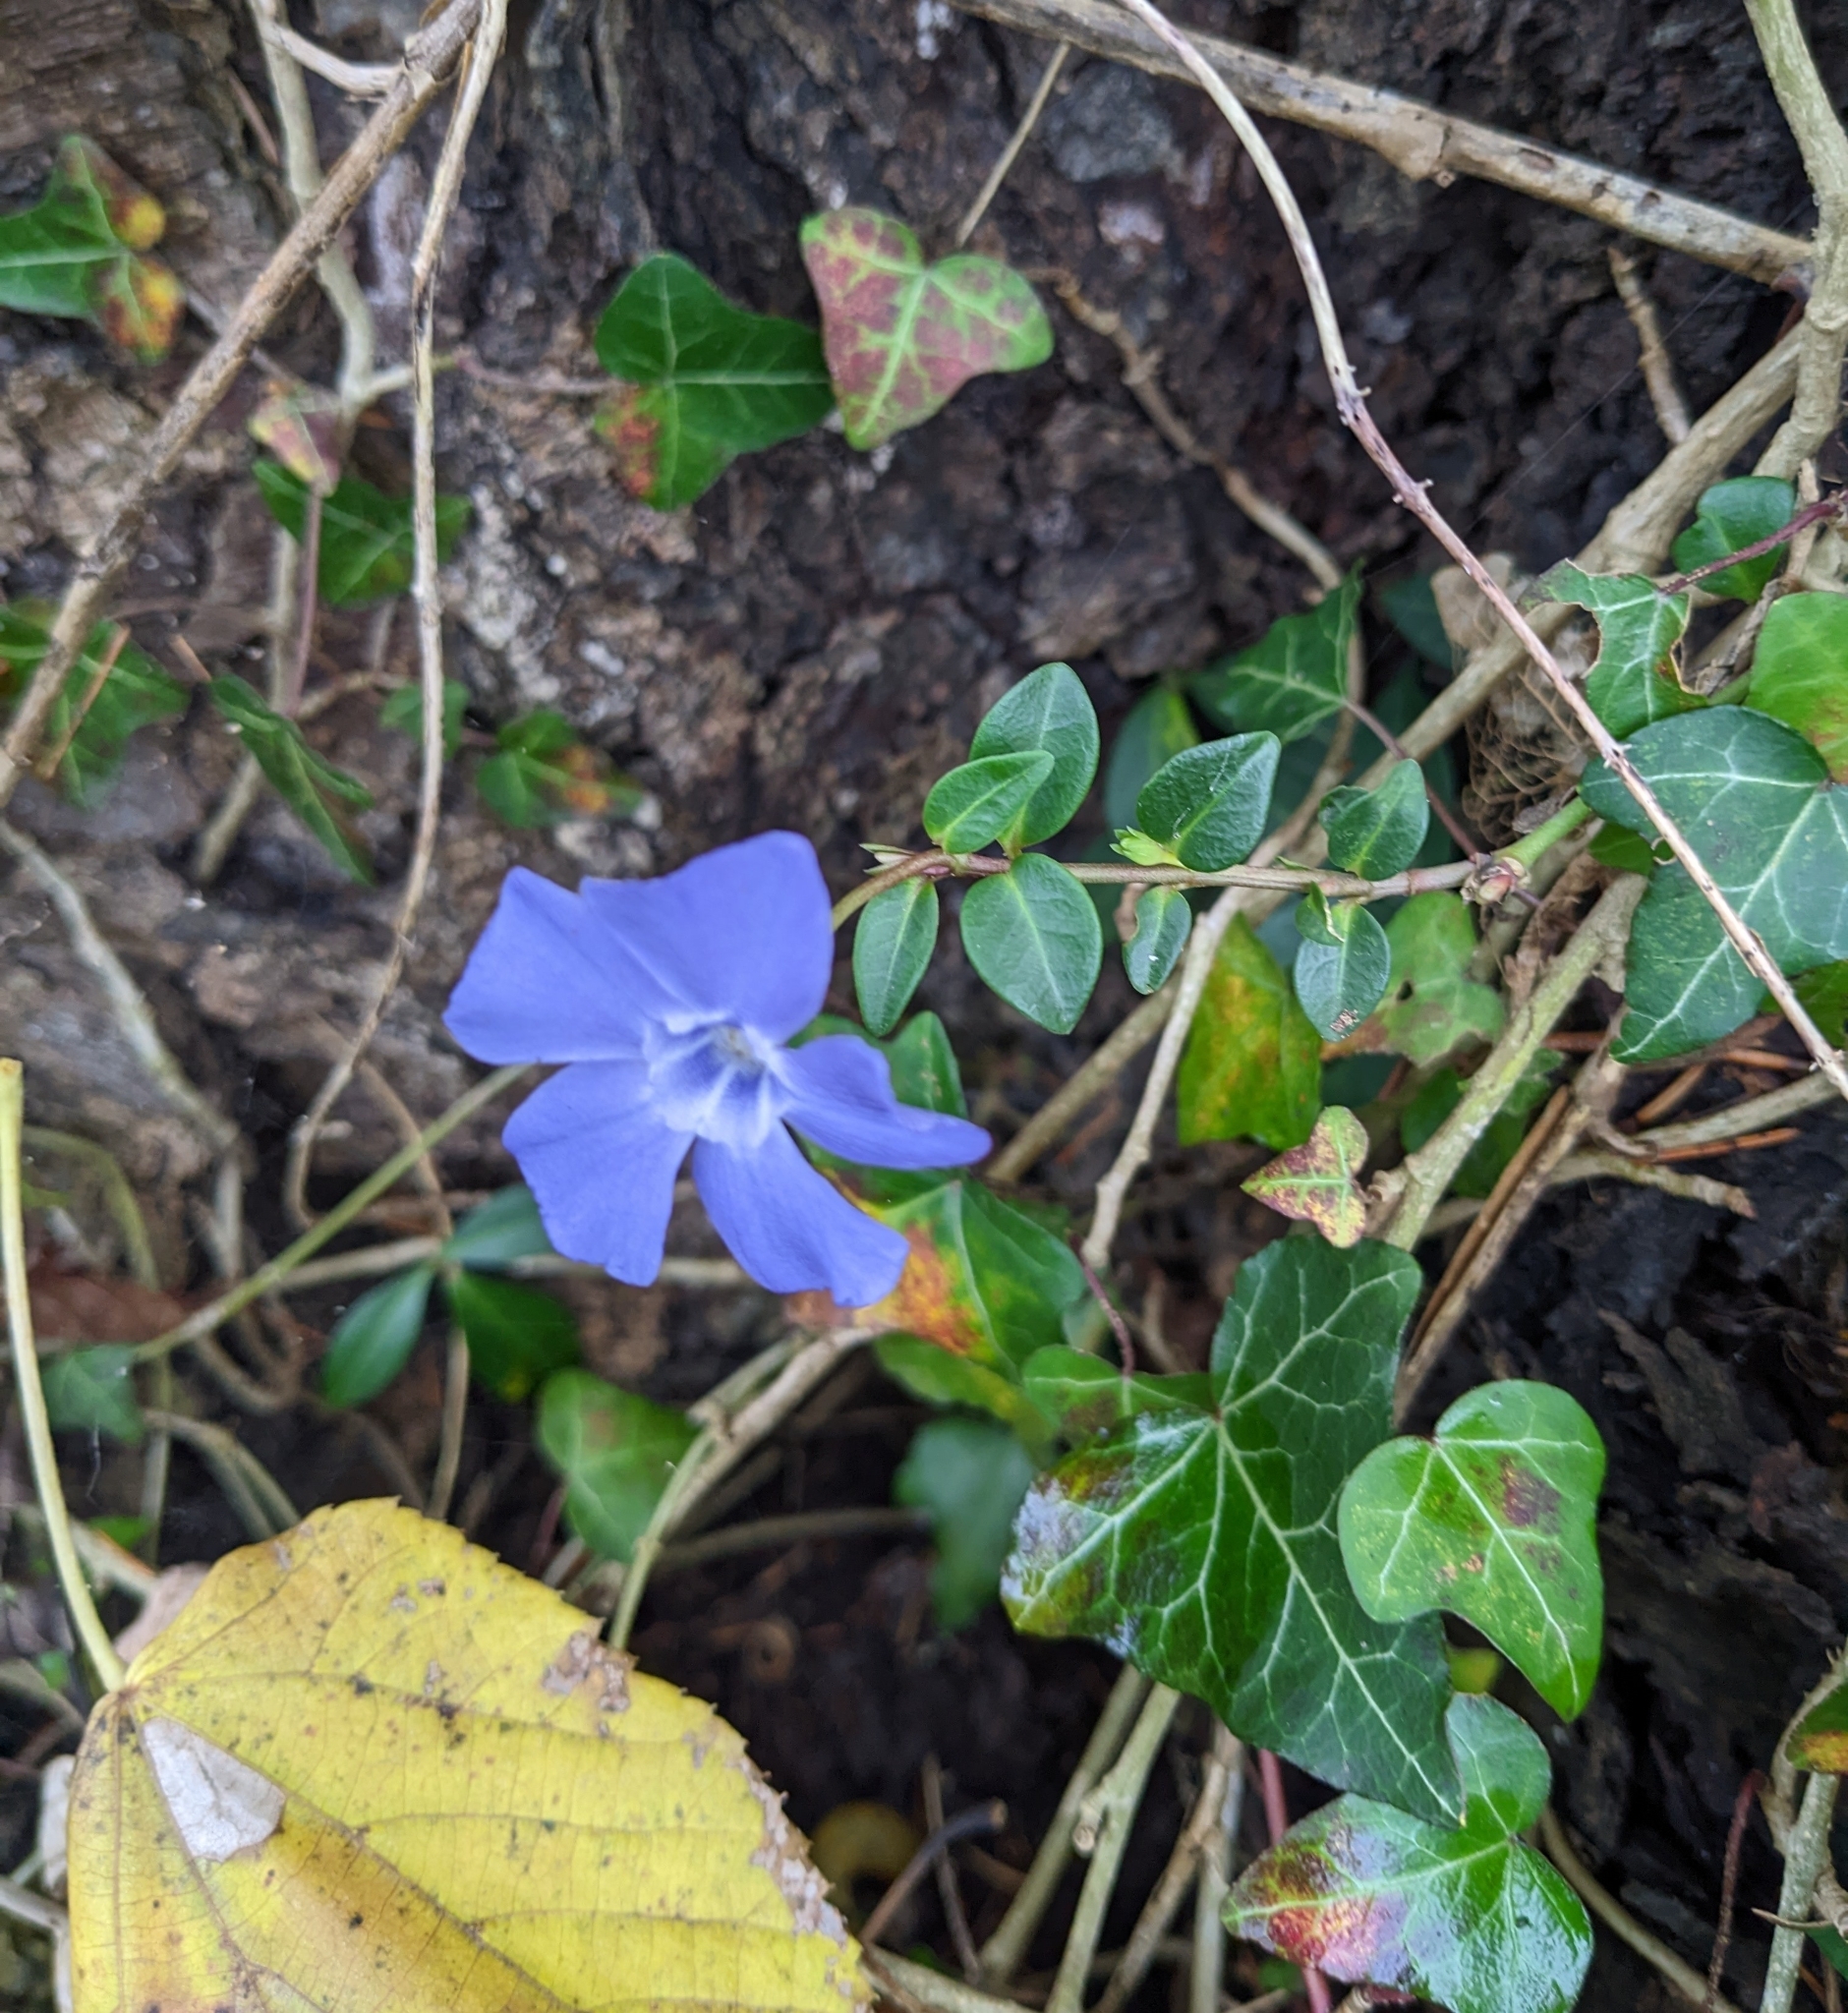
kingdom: Plantae
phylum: Tracheophyta
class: Magnoliopsida
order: Gentianales
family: Apocynaceae
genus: Vinca
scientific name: Vinca minor
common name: Lesser periwinkle
